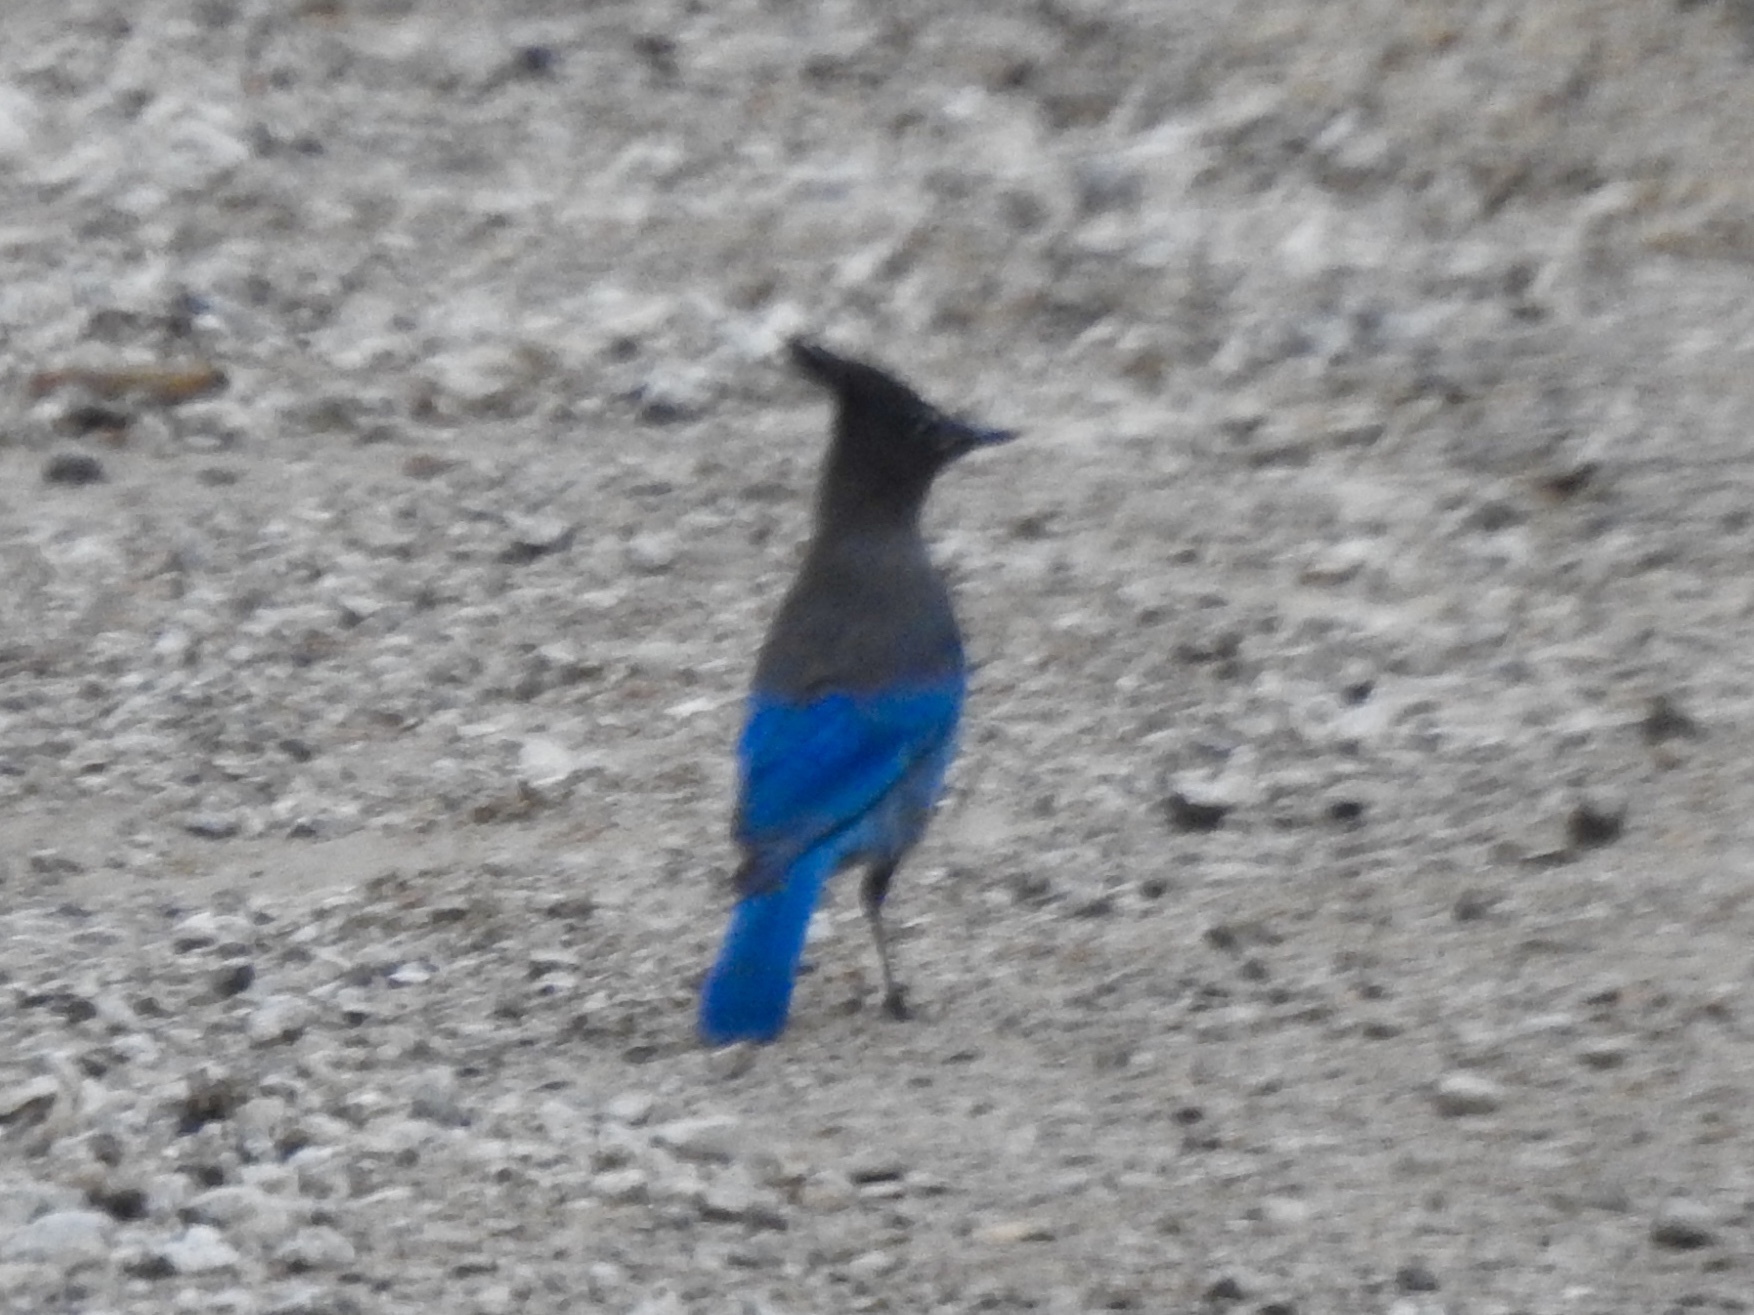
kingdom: Animalia
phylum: Chordata
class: Aves
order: Passeriformes
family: Corvidae
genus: Cyanocitta
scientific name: Cyanocitta stelleri
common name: Steller's jay
